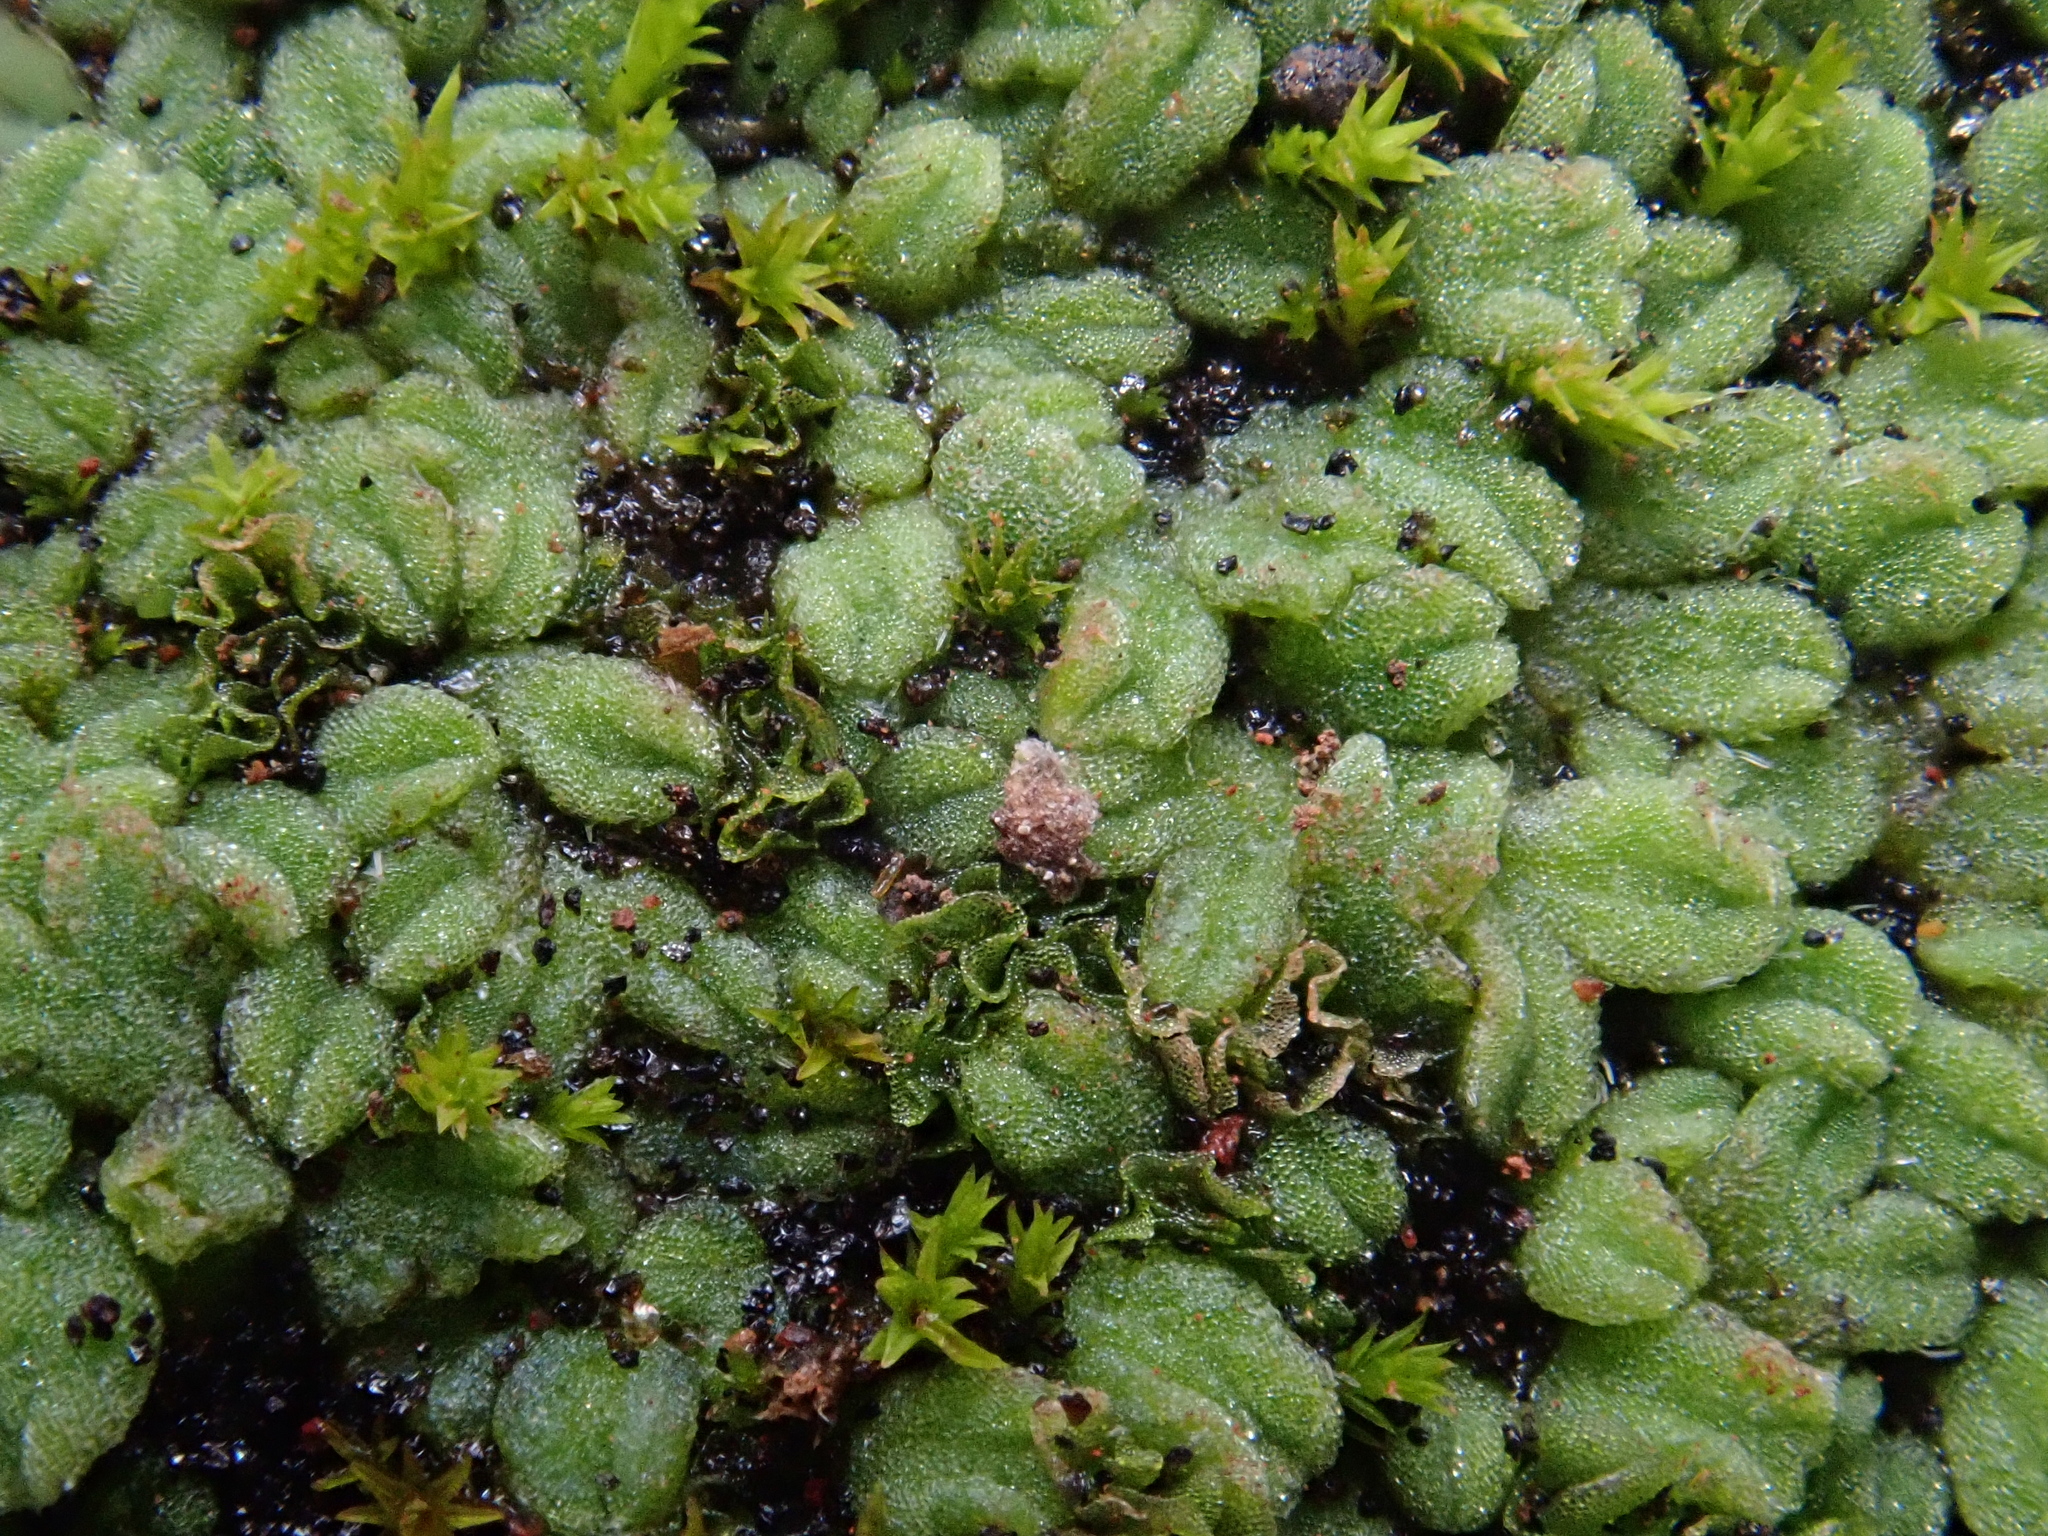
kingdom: Plantae
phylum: Marchantiophyta
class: Marchantiopsida
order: Marchantiales
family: Ricciaceae
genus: Riccia
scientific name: Riccia crozalsii
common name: Ciliate crystalwort
